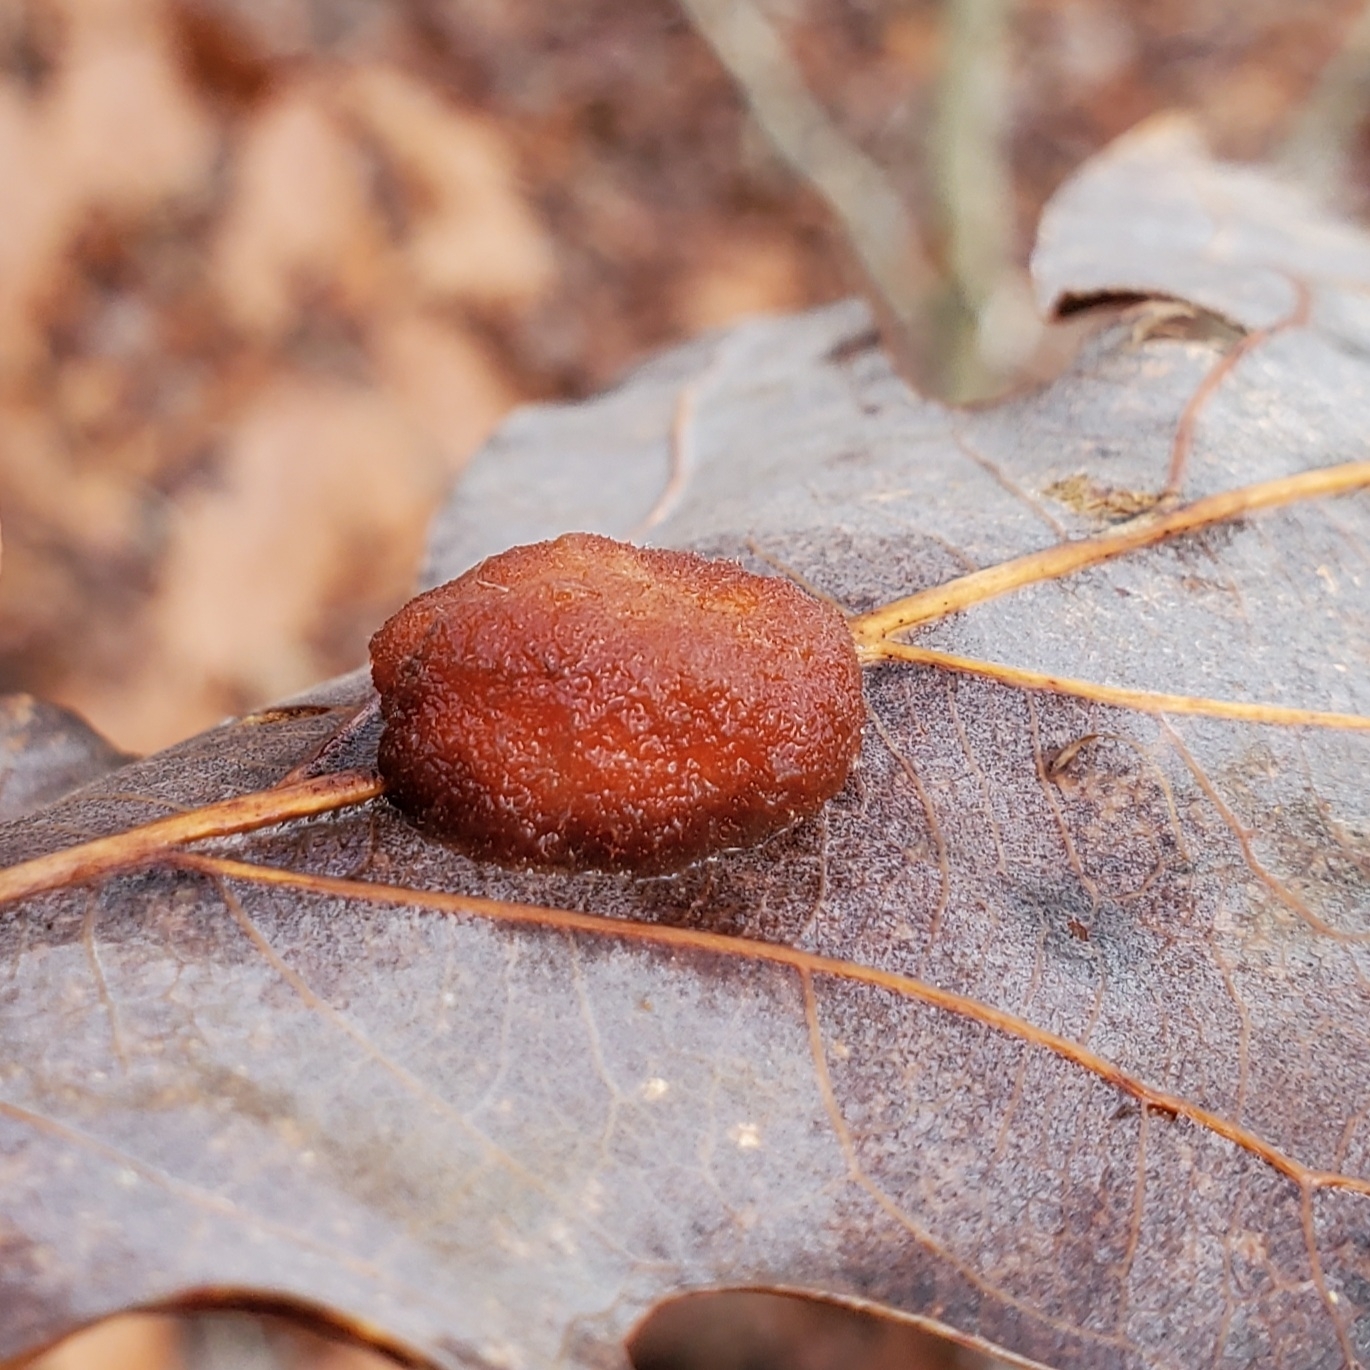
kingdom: Animalia
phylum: Arthropoda
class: Insecta
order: Hymenoptera
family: Cynipidae
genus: Andricus
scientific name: Andricus quercusflocci
